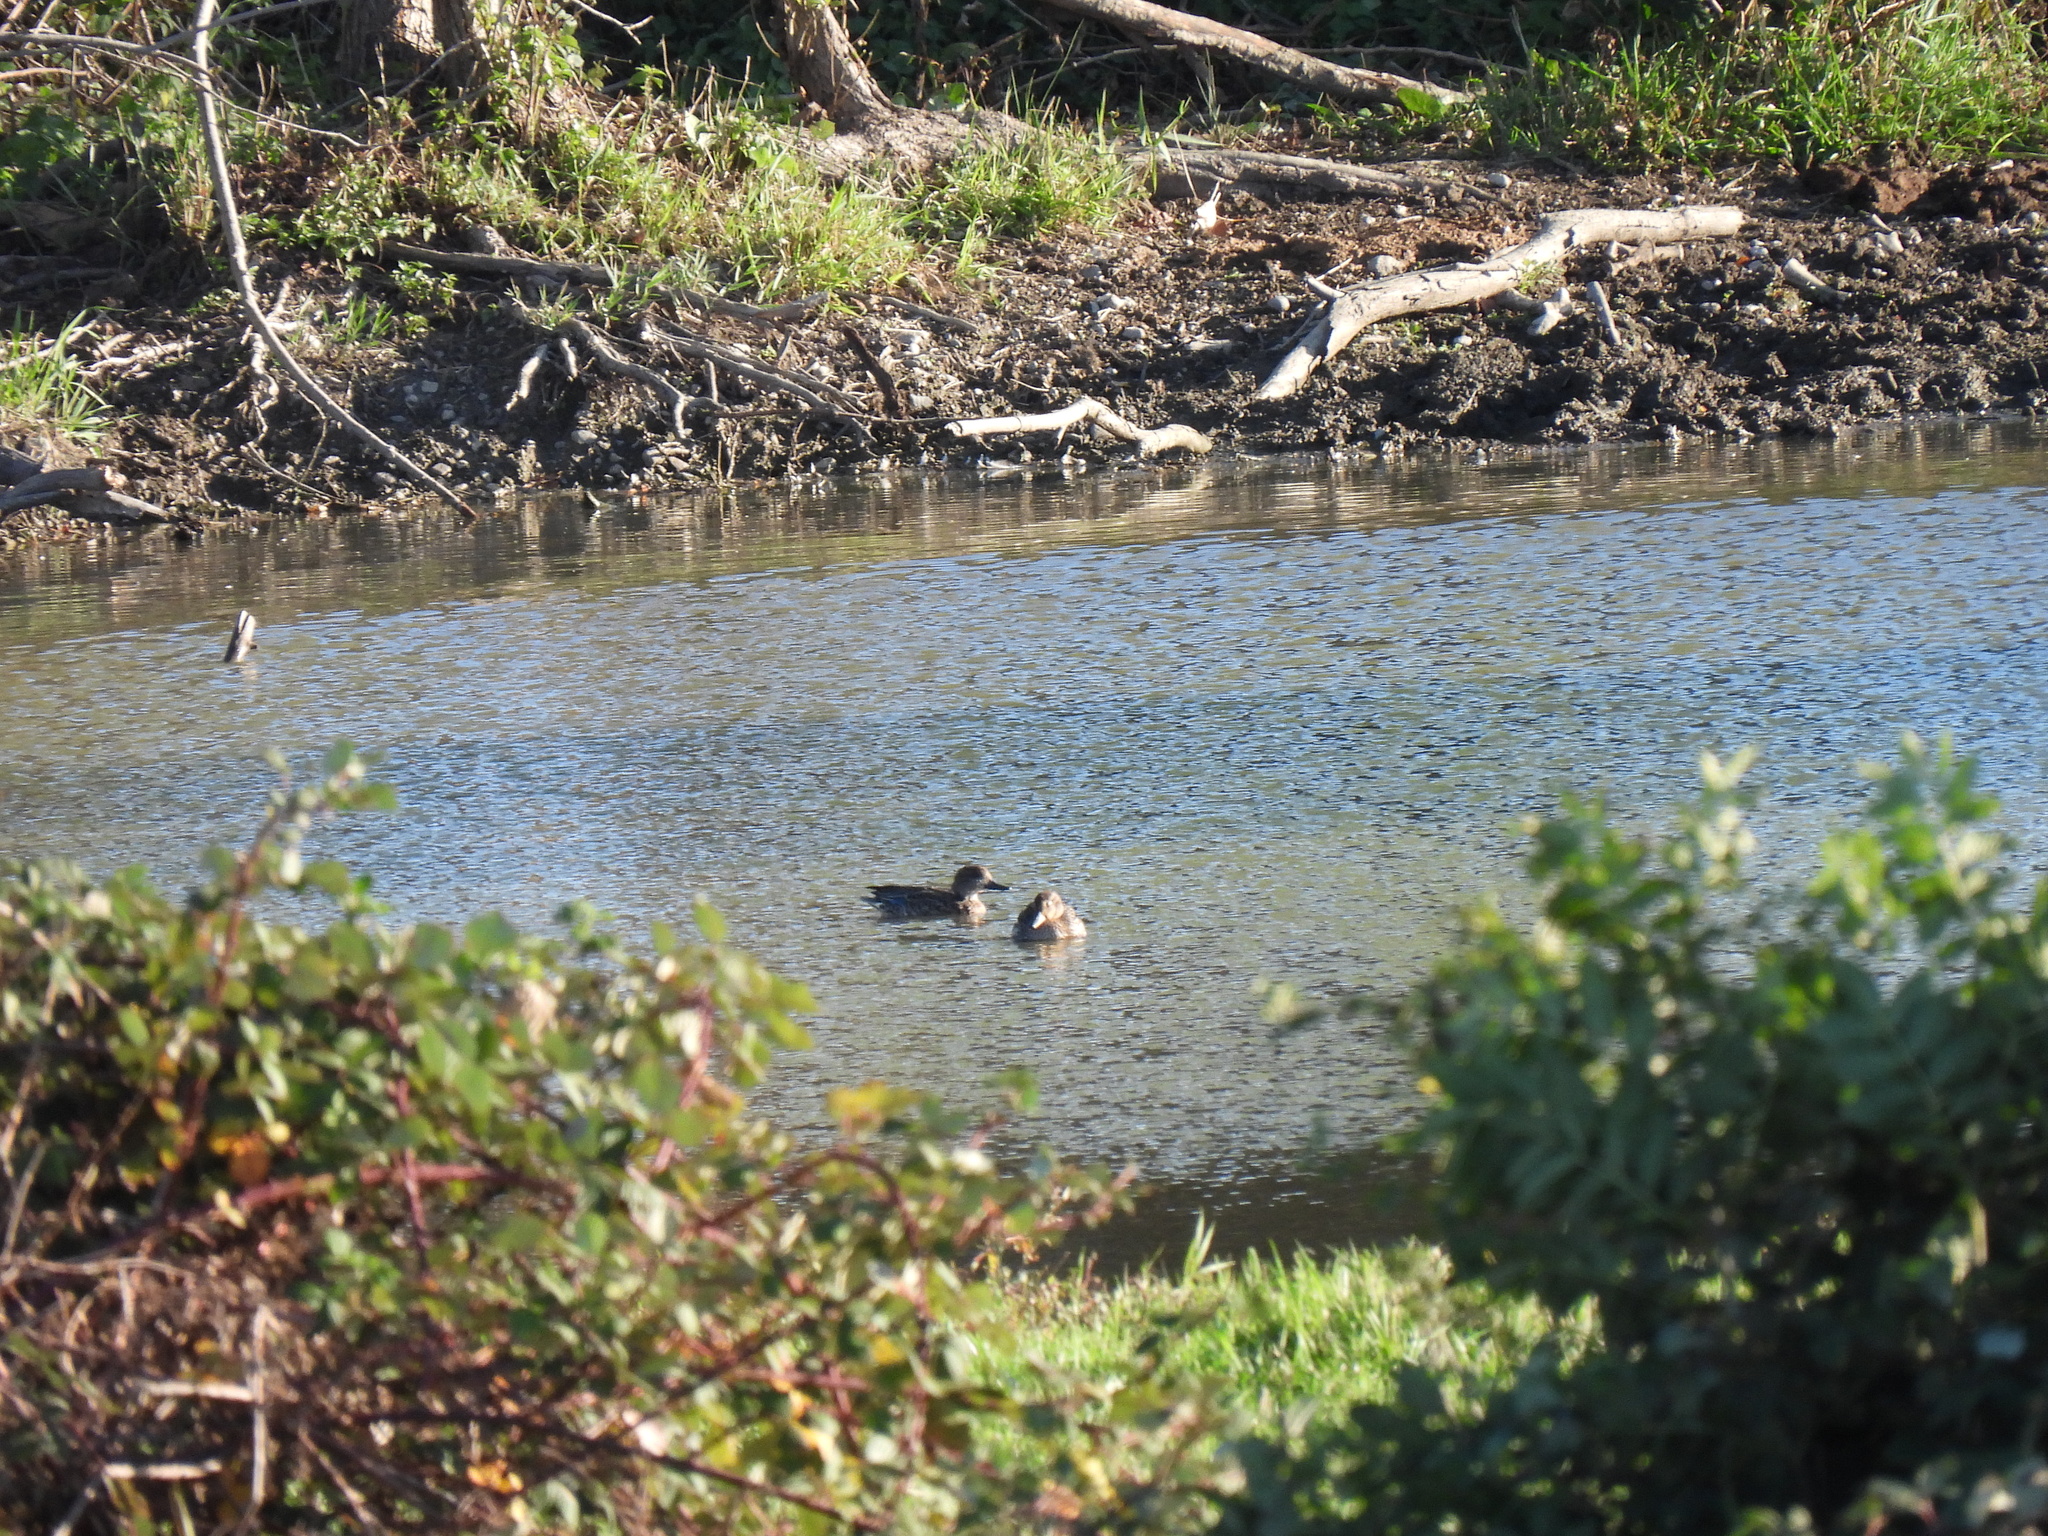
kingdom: Animalia
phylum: Chordata
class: Aves
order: Anseriformes
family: Anatidae
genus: Anas
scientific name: Anas crecca
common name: Eurasian teal
